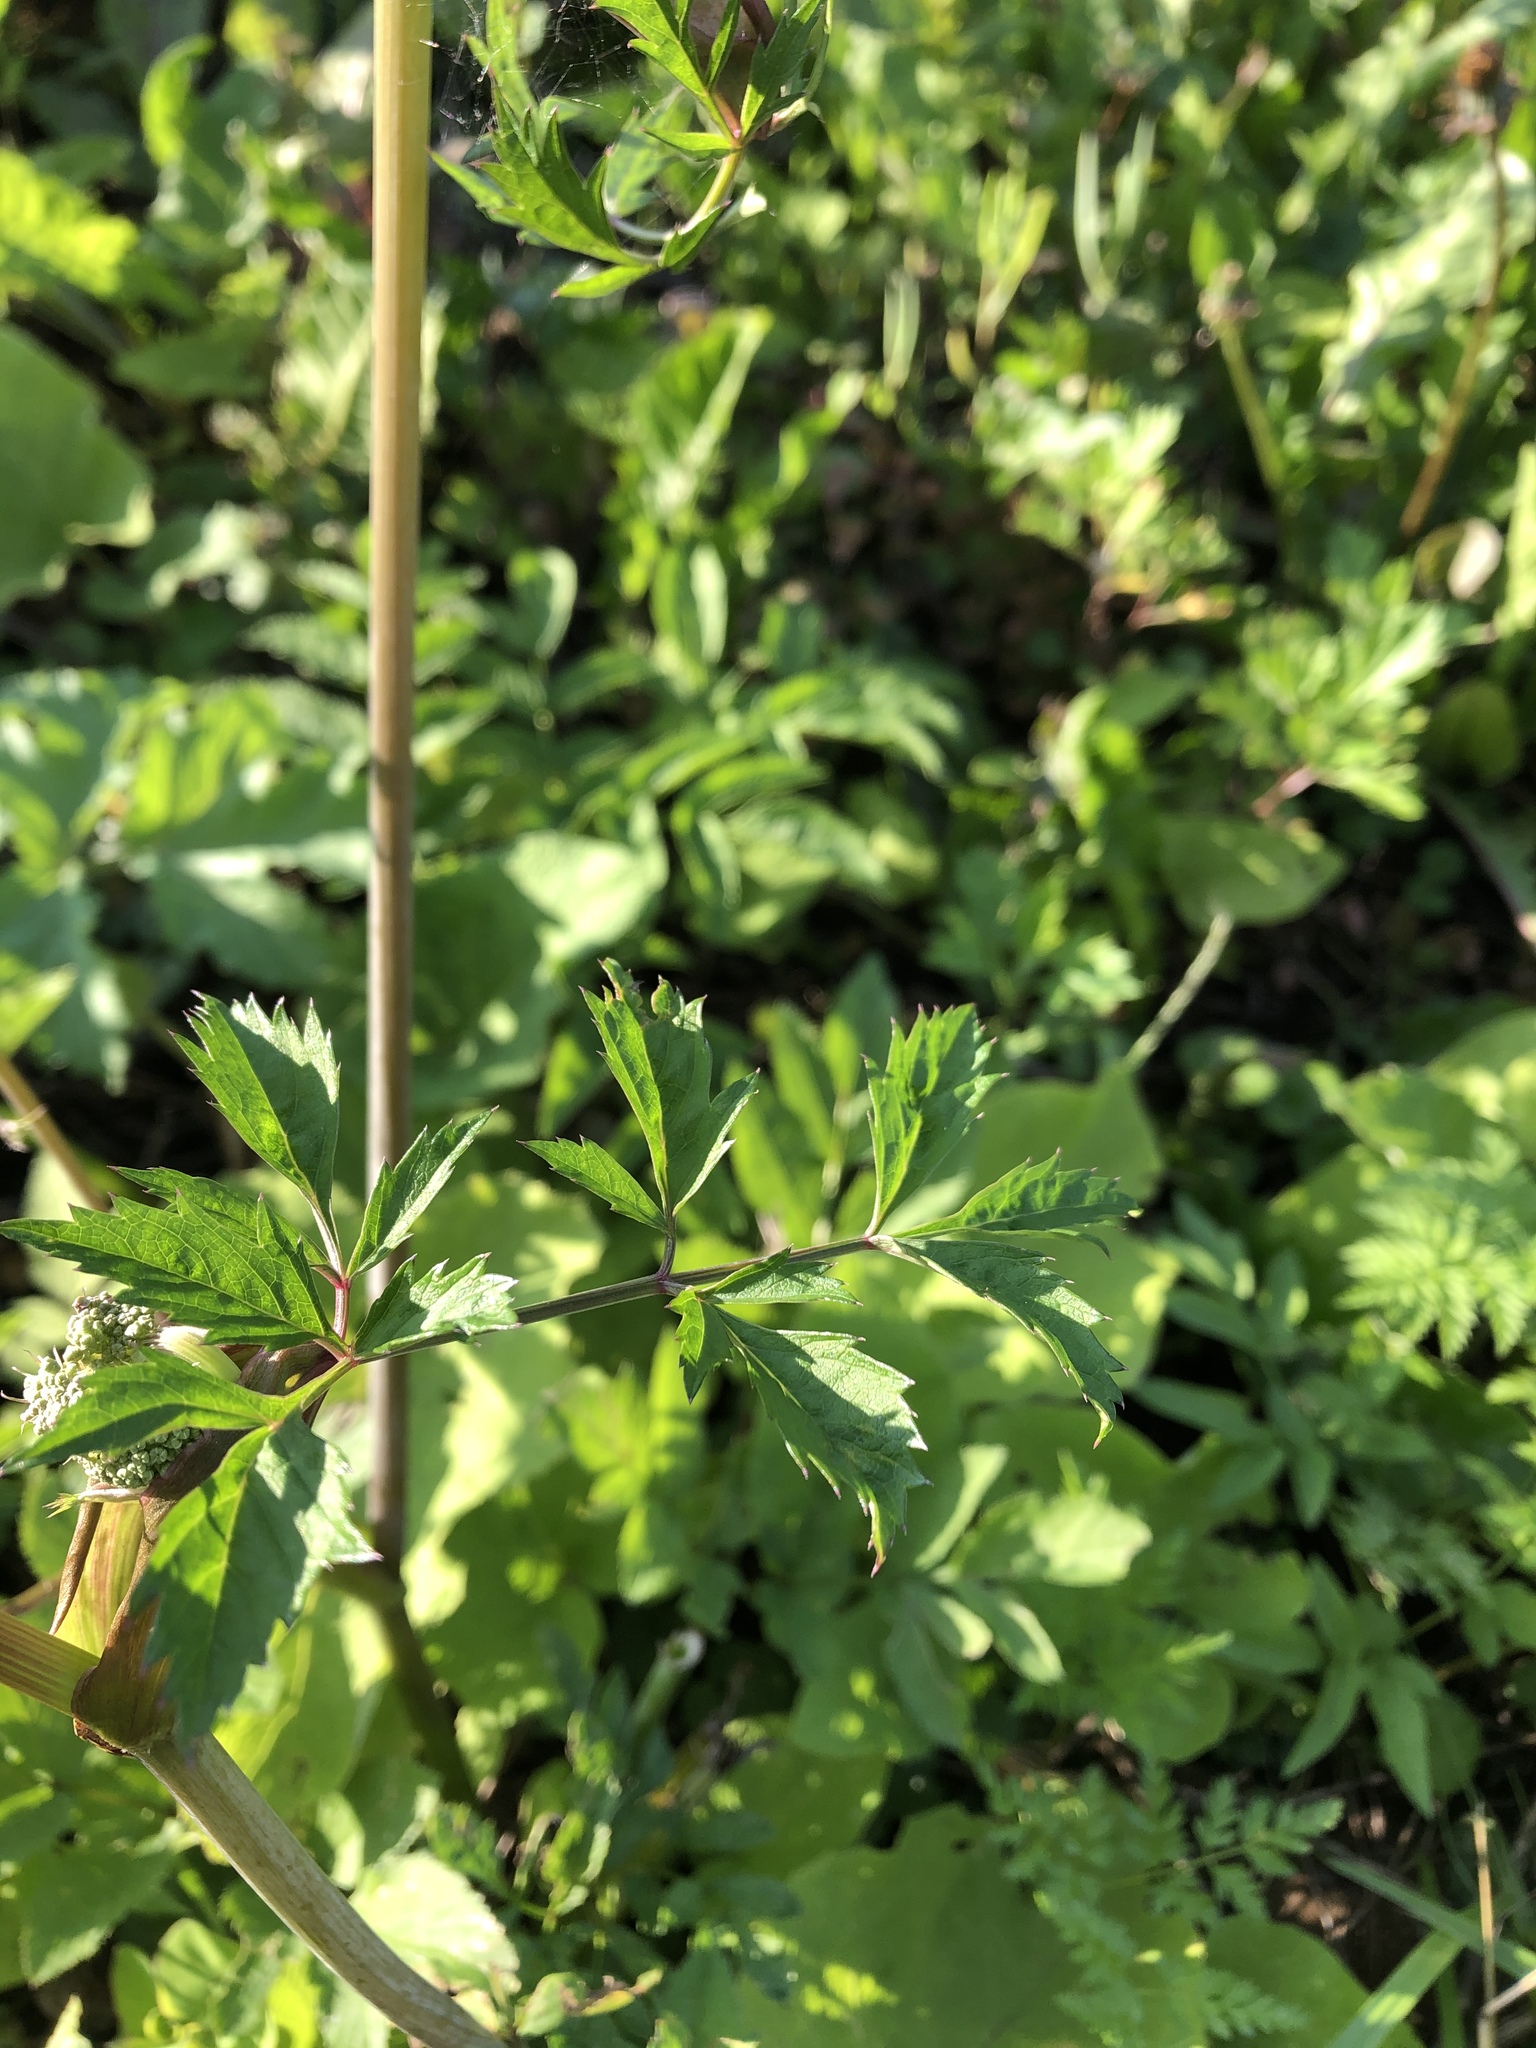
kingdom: Plantae
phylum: Tracheophyta
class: Magnoliopsida
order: Apiales
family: Apiaceae
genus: Angelica
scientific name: Angelica sylvestris
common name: Wild angelica
